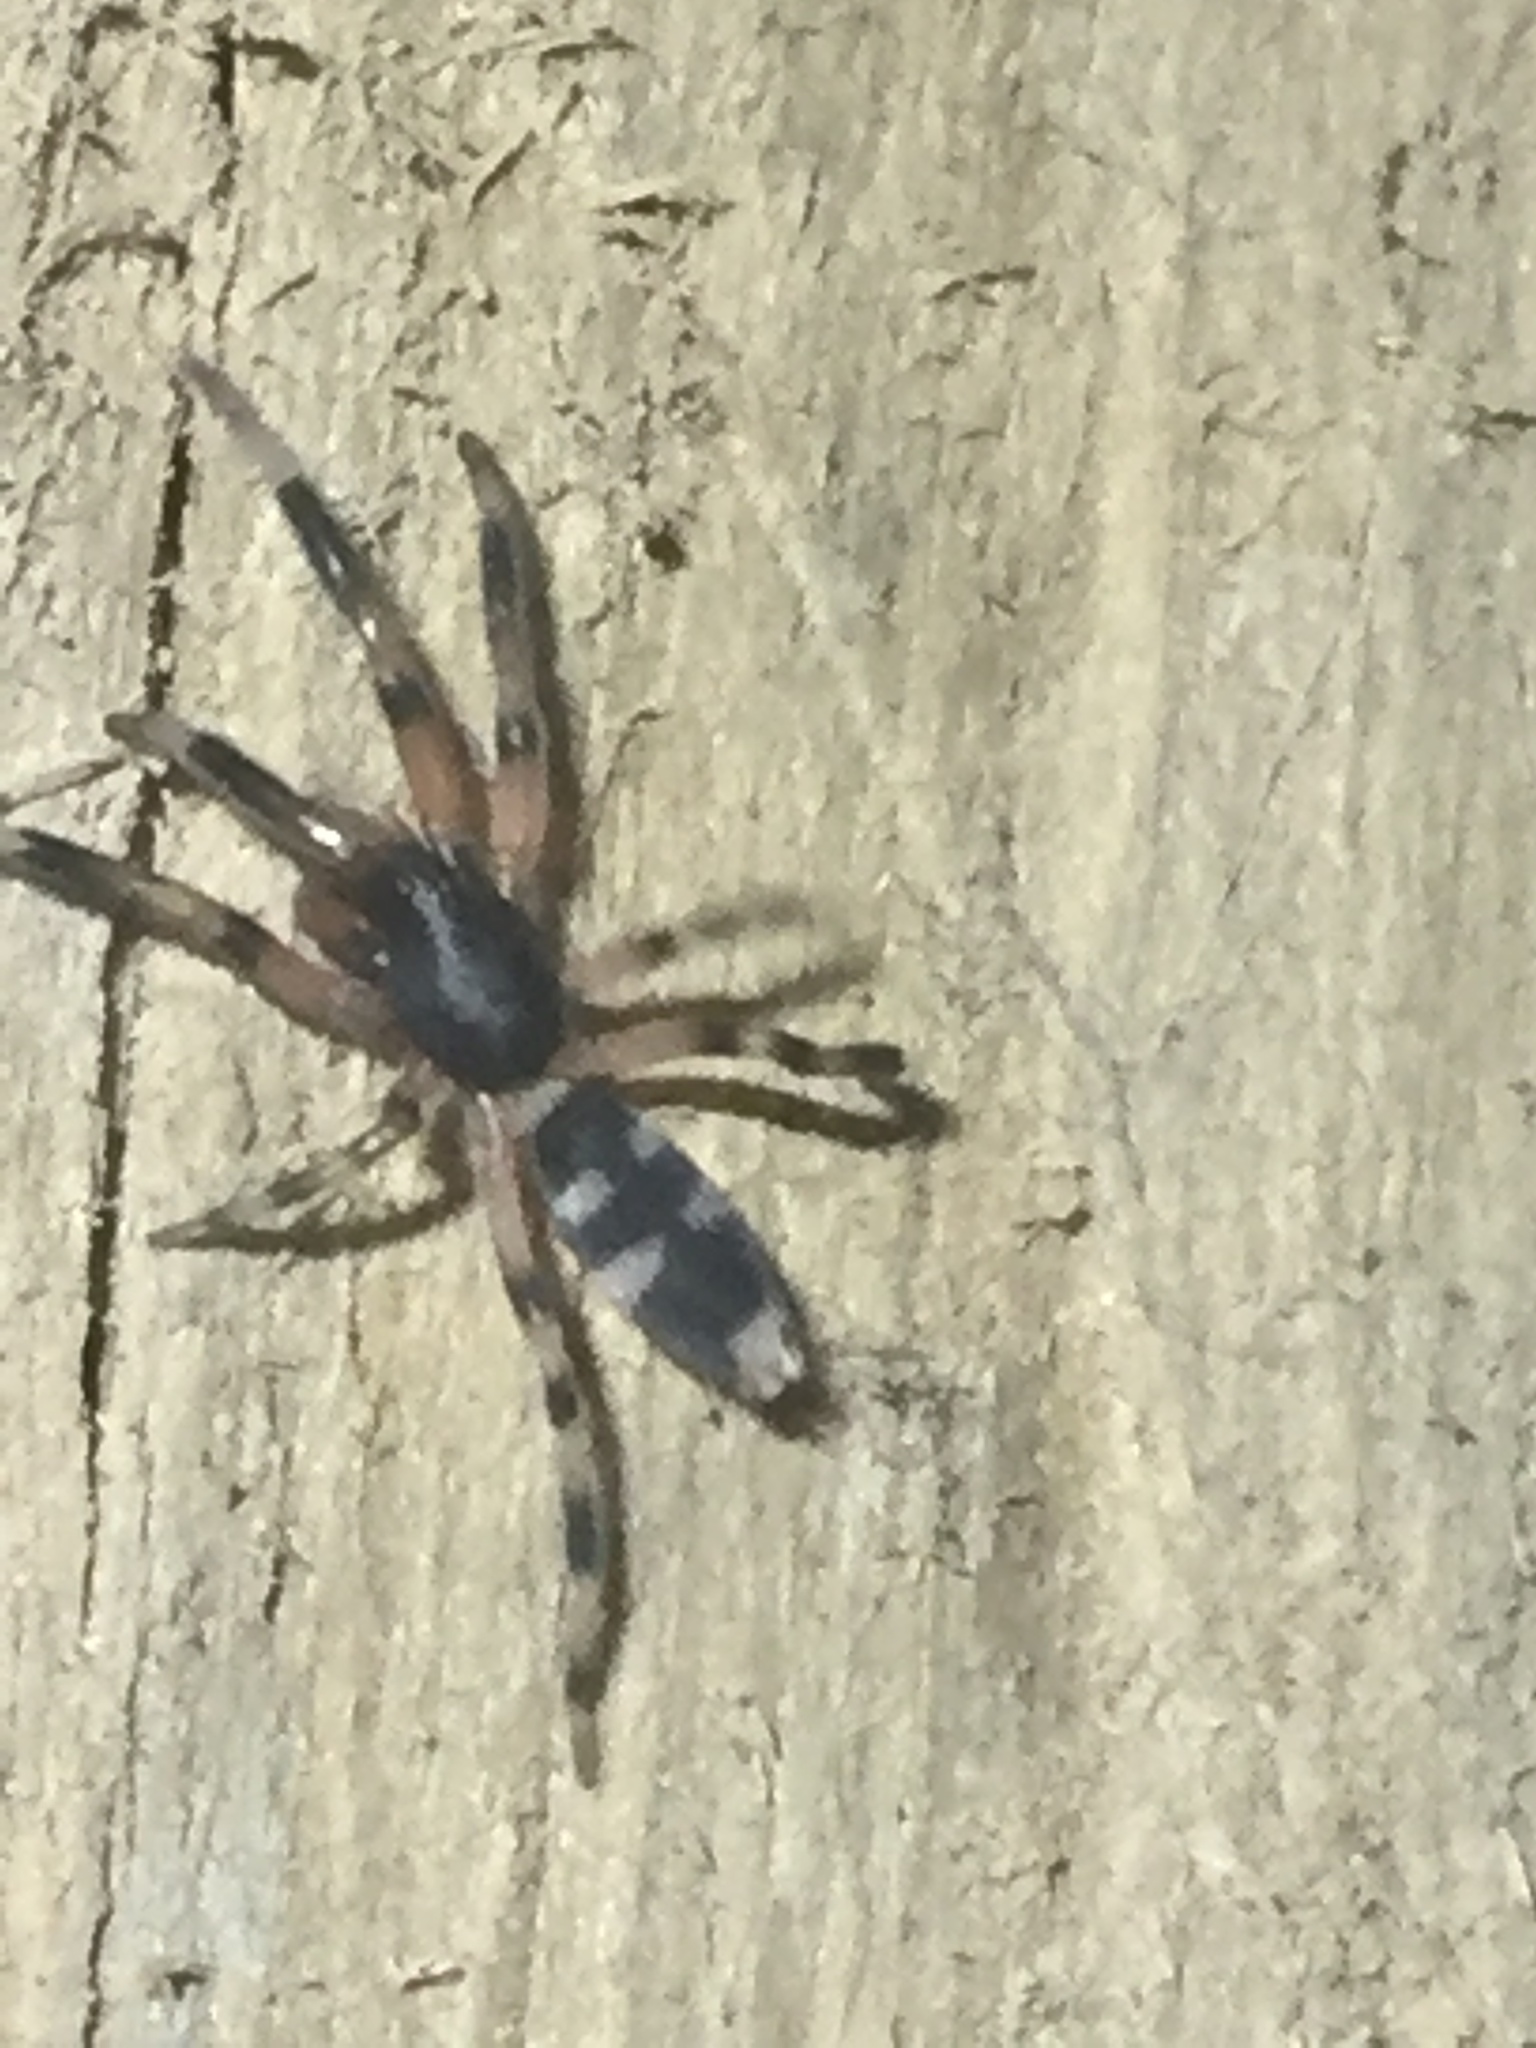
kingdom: Animalia
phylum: Arthropoda
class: Arachnida
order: Araneae
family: Lamponidae
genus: Lampona
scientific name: Lampona murina
